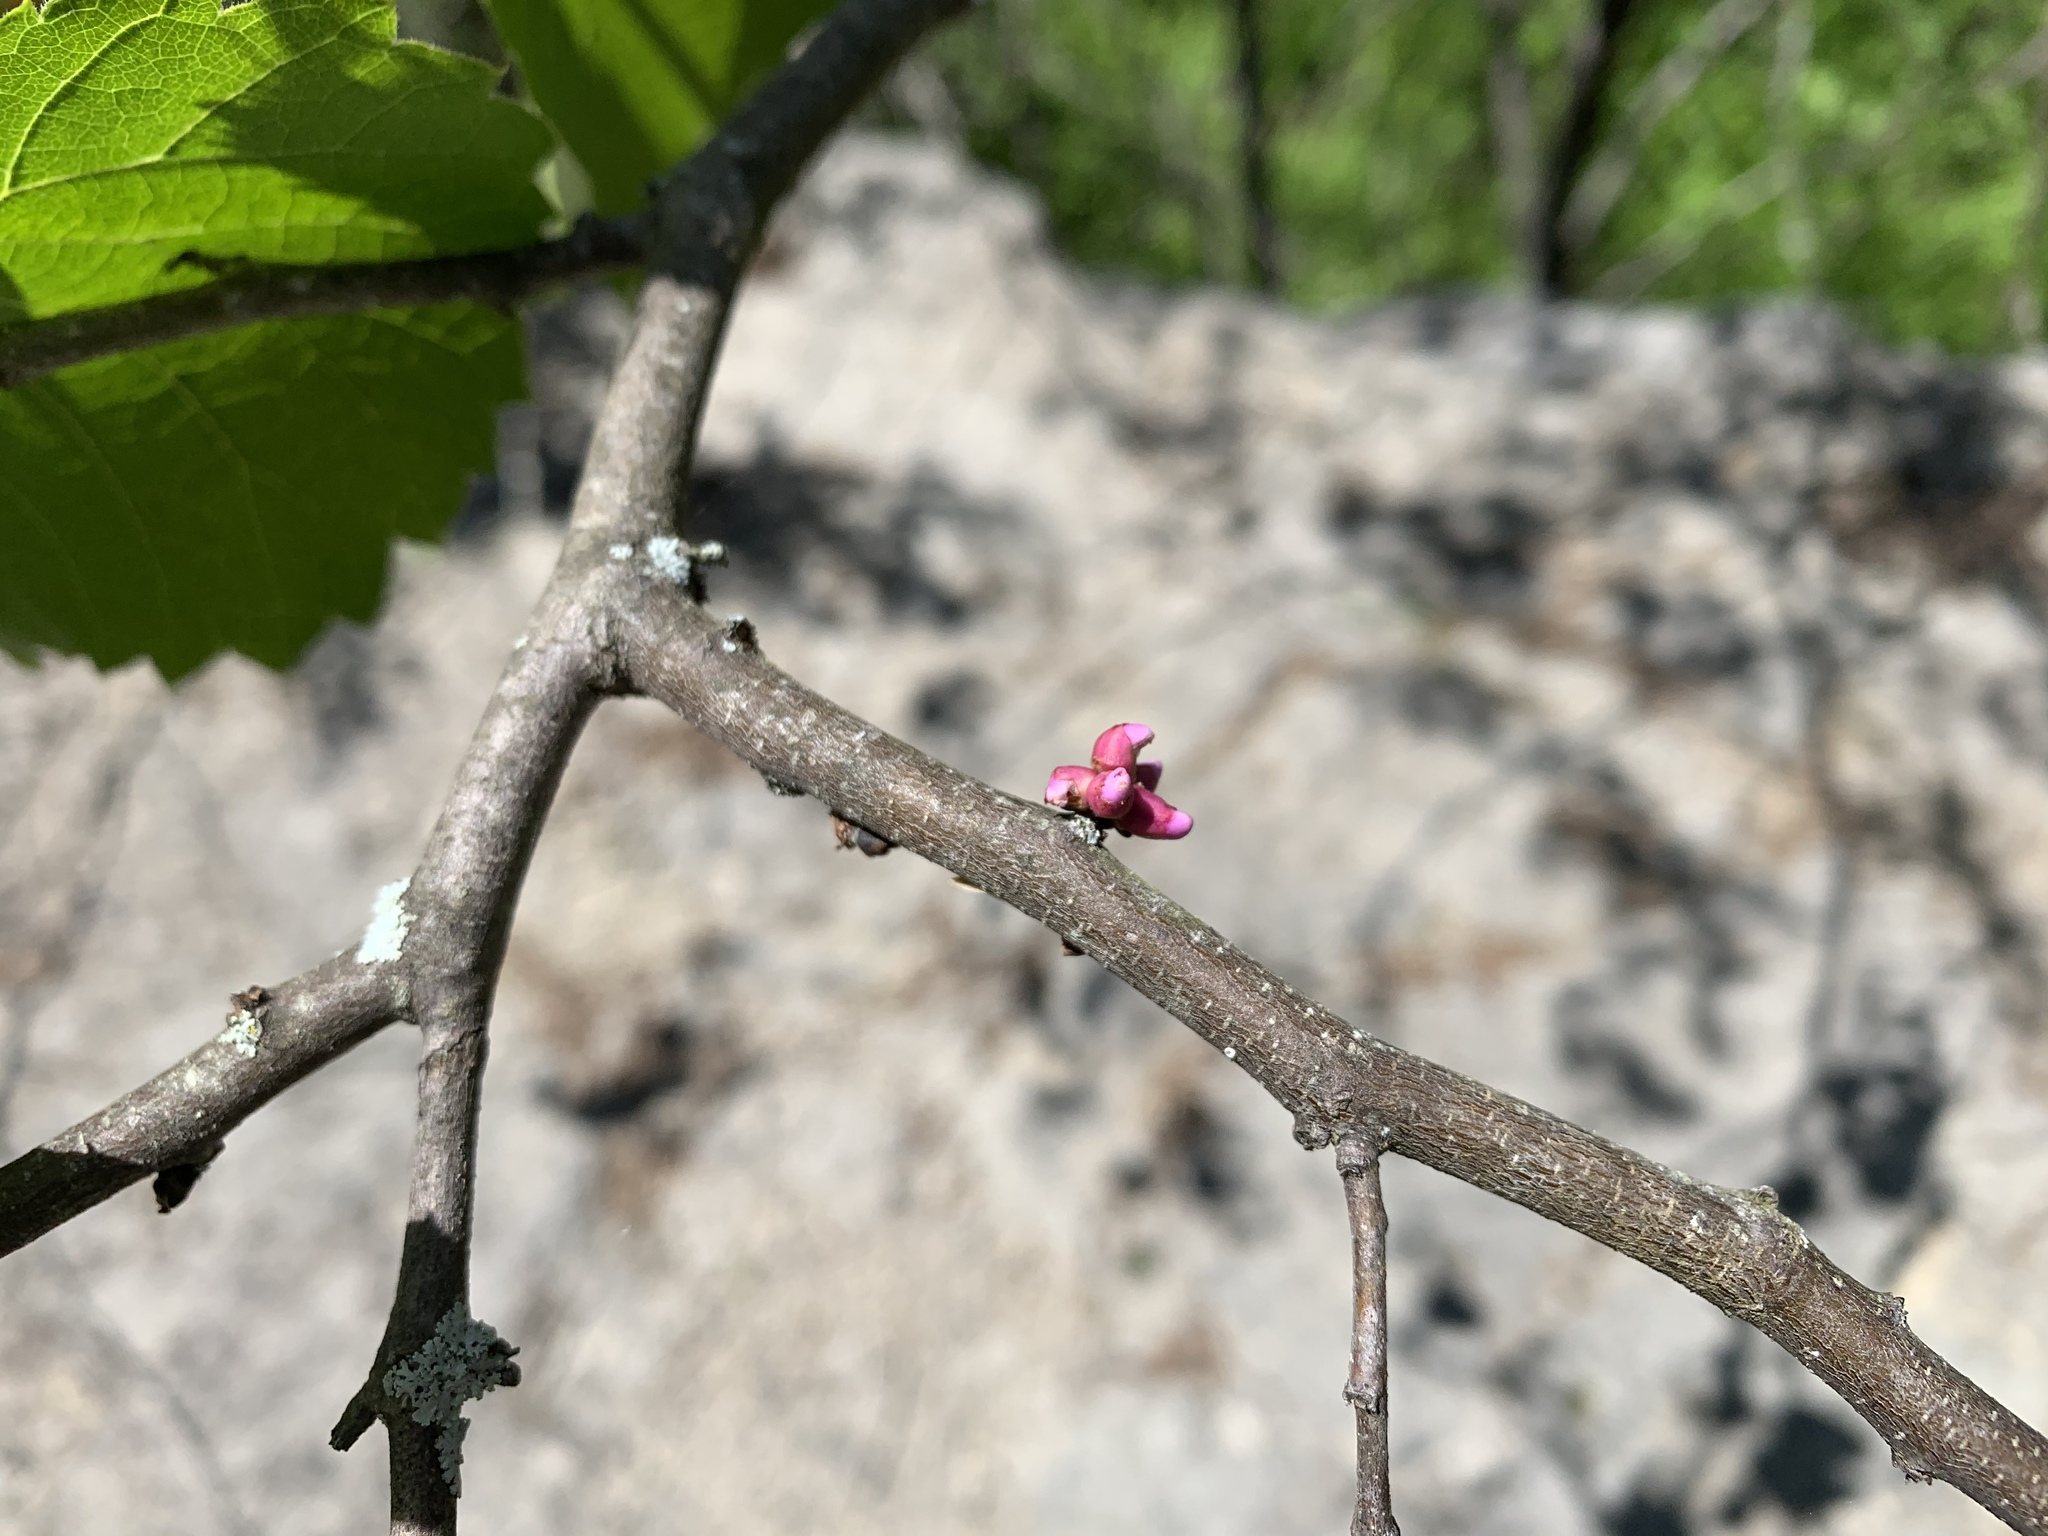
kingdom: Plantae
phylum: Tracheophyta
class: Magnoliopsida
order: Fabales
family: Fabaceae
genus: Cercis
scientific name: Cercis canadensis
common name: Eastern redbud
